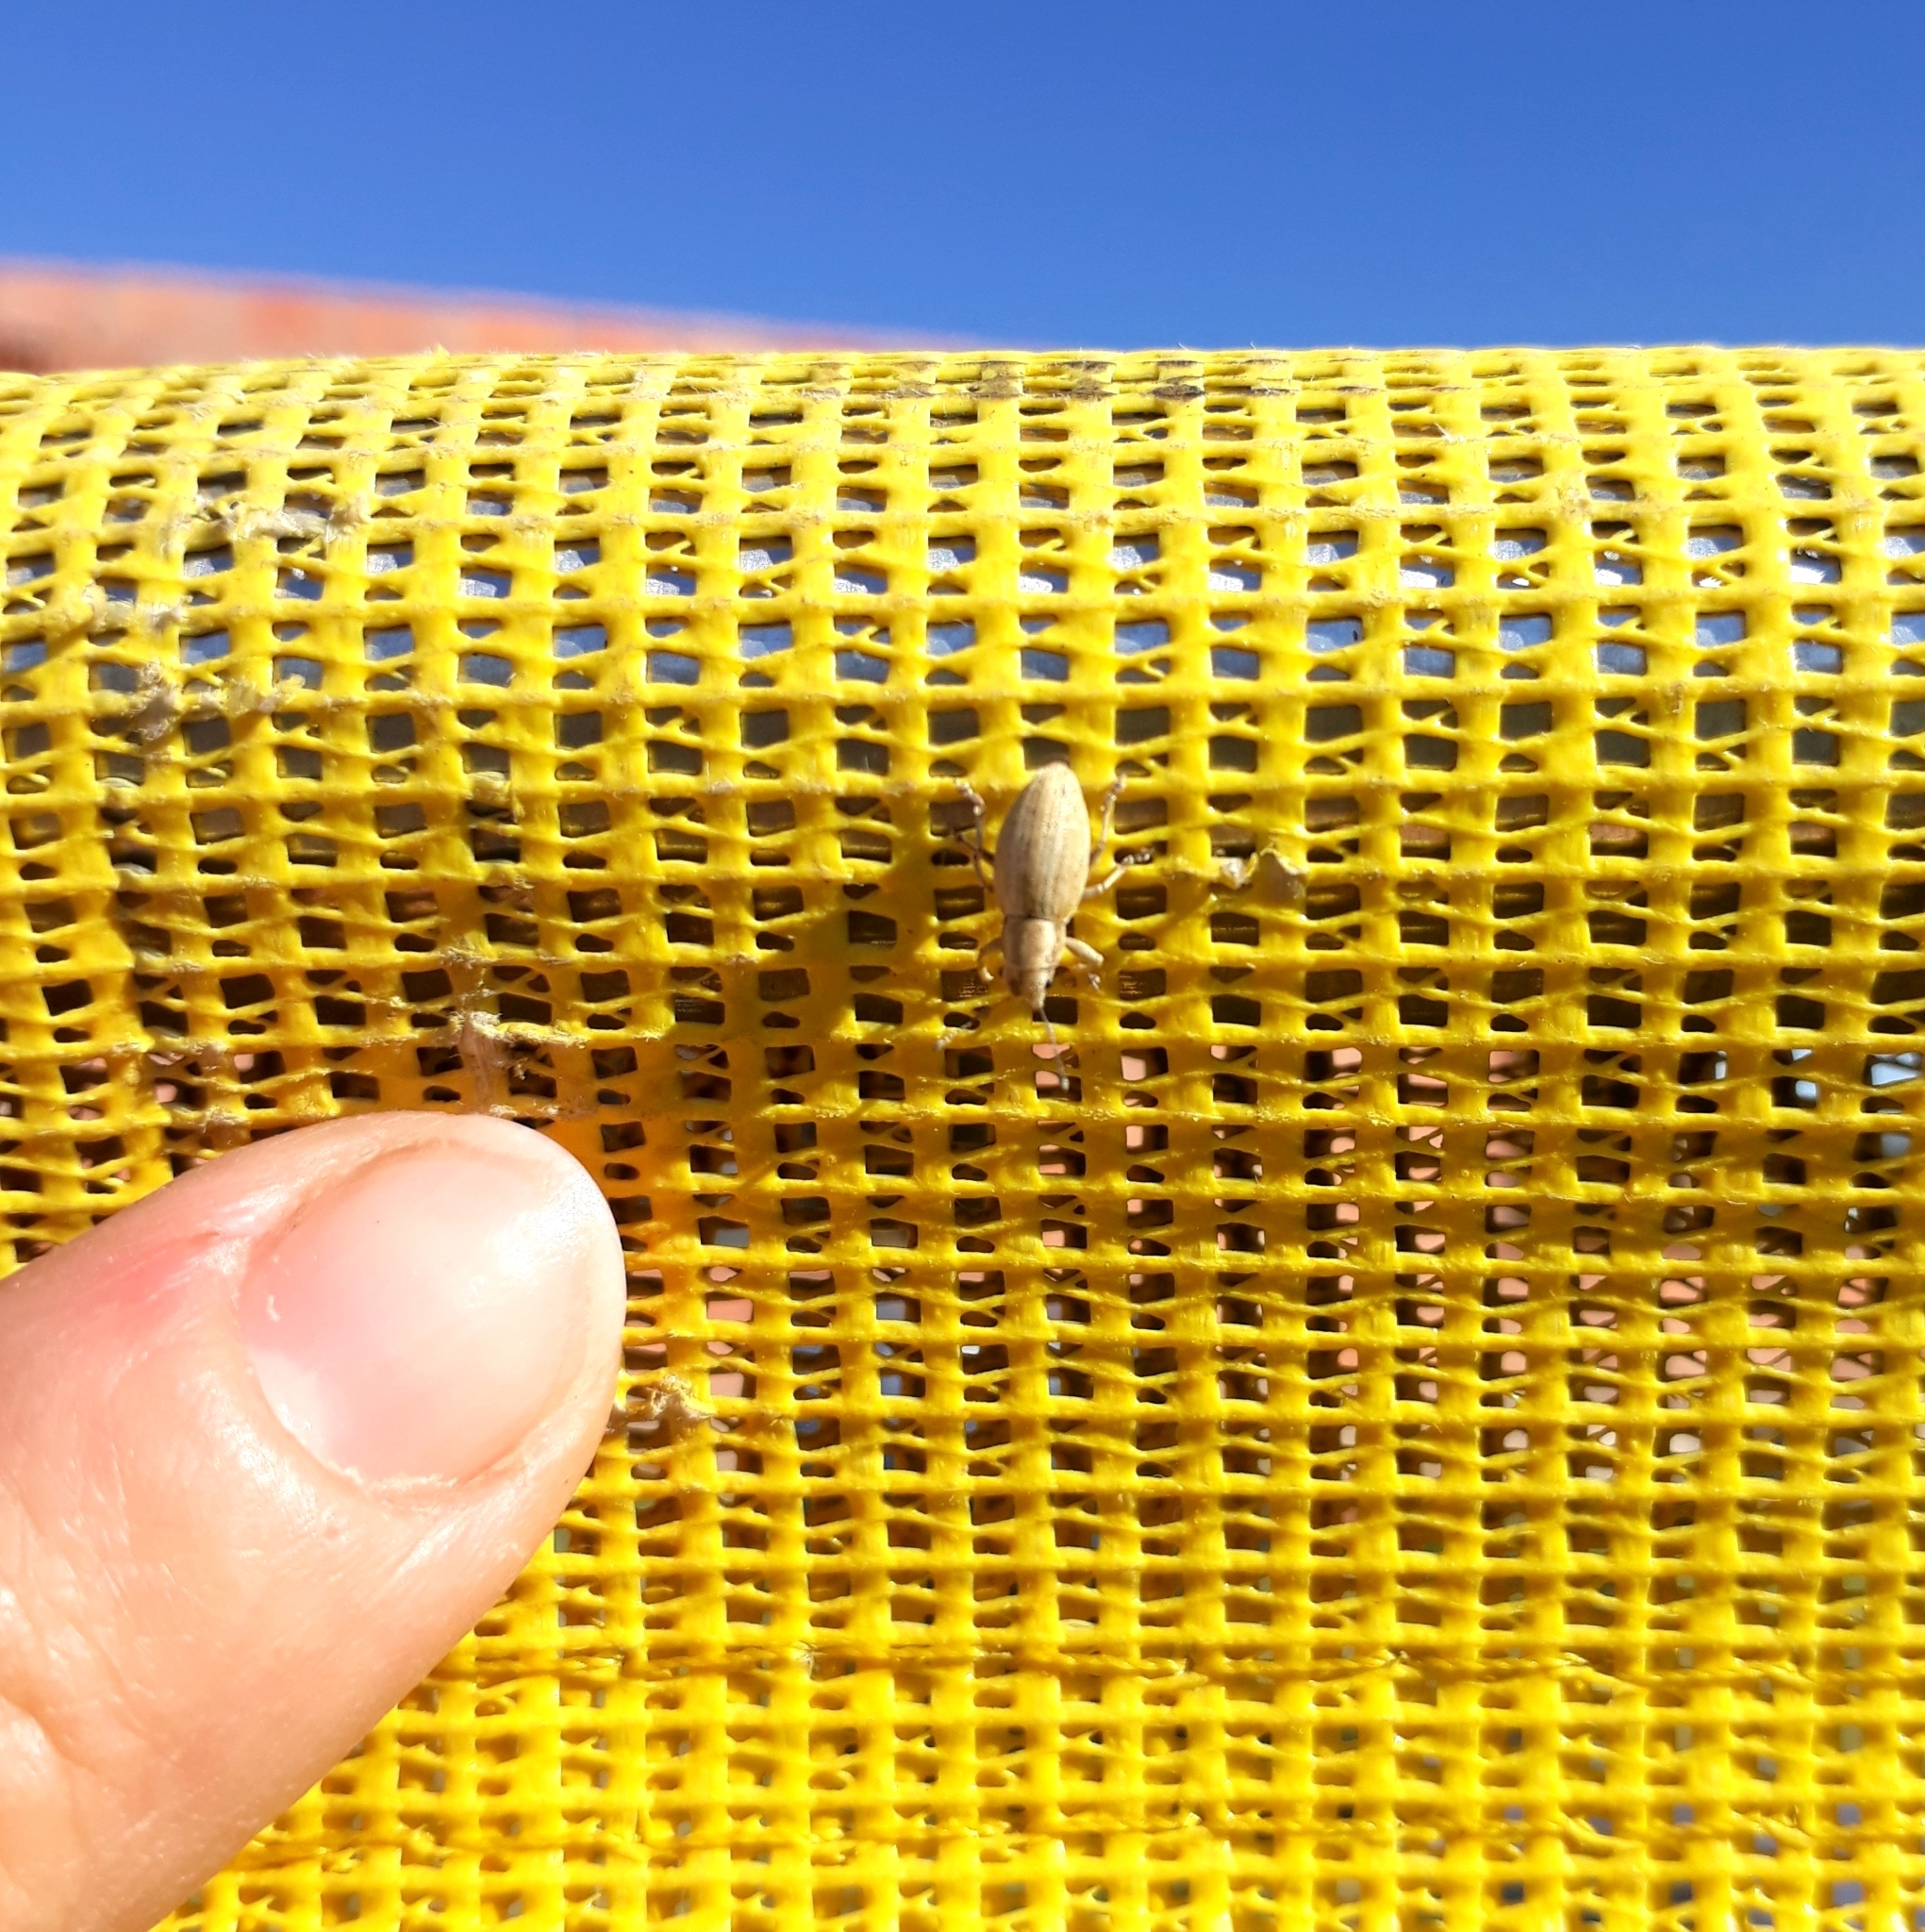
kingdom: Animalia
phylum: Arthropoda
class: Insecta
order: Coleoptera
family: Curculionidae
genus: Aramigus
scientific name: Aramigus tessellatus
